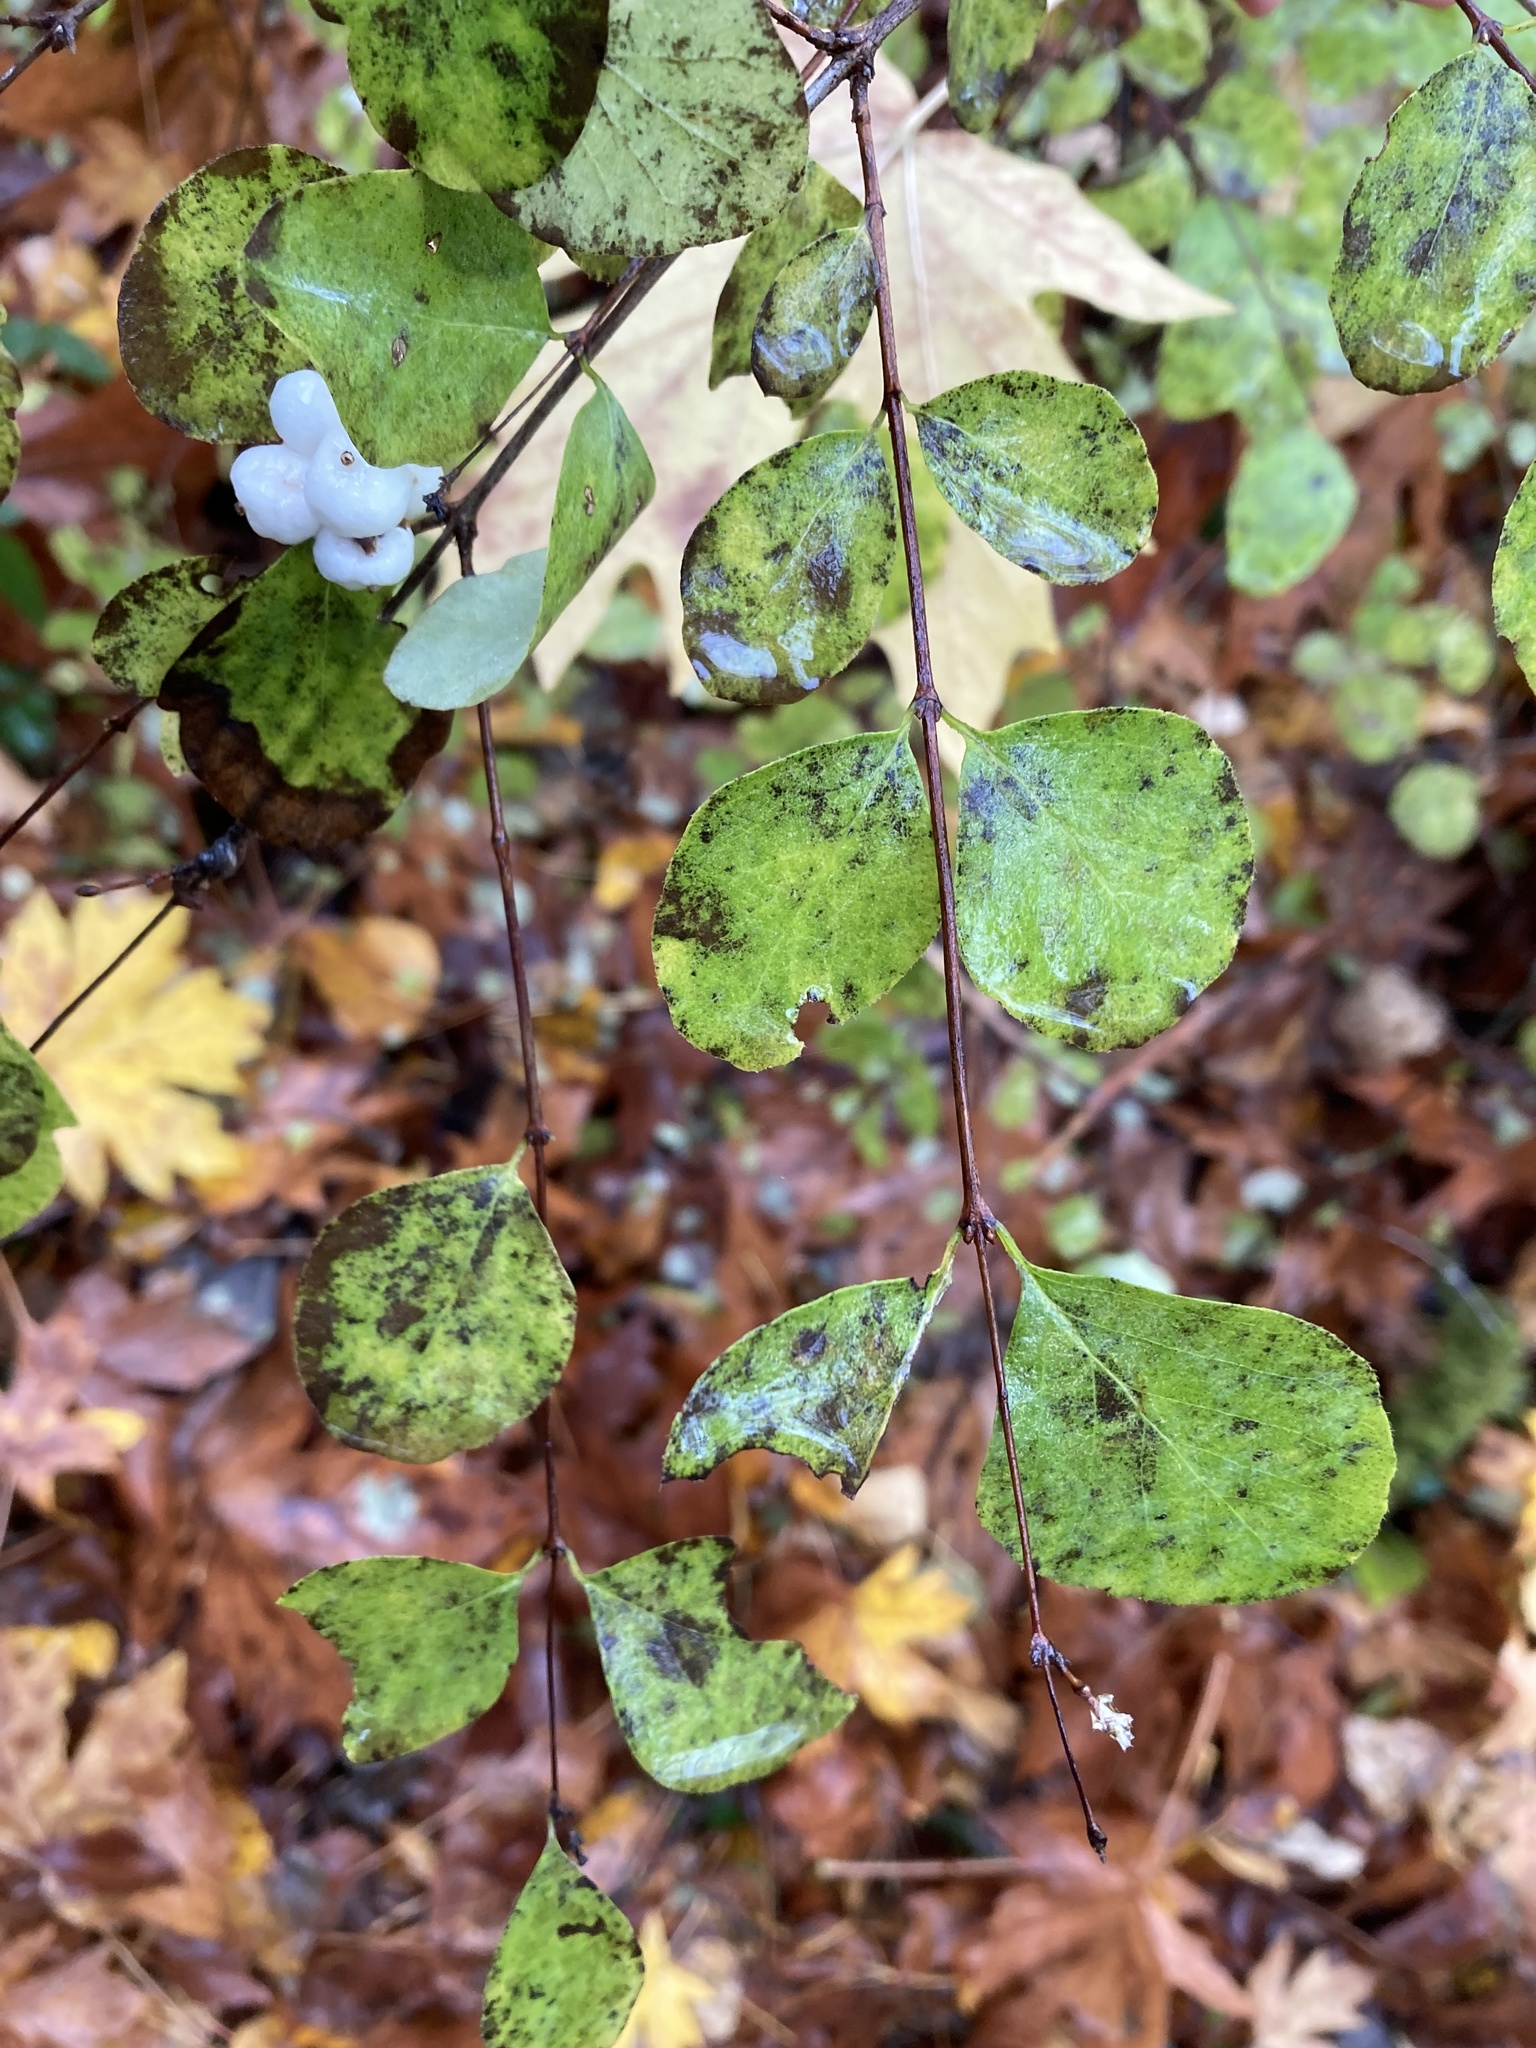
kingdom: Plantae
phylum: Tracheophyta
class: Magnoliopsida
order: Dipsacales
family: Caprifoliaceae
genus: Symphoricarpos
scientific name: Symphoricarpos albus
